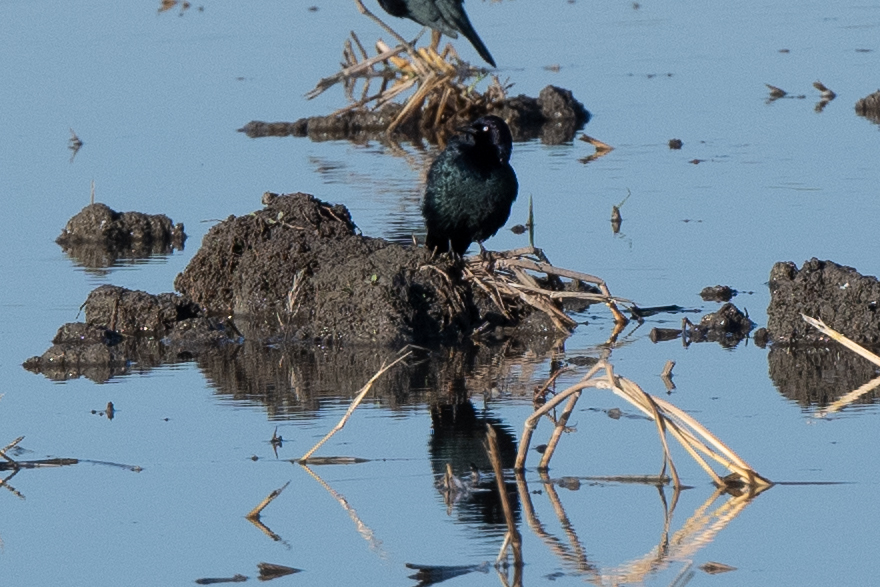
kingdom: Animalia
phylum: Chordata
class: Aves
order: Passeriformes
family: Icteridae
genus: Euphagus
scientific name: Euphagus cyanocephalus
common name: Brewer's blackbird
